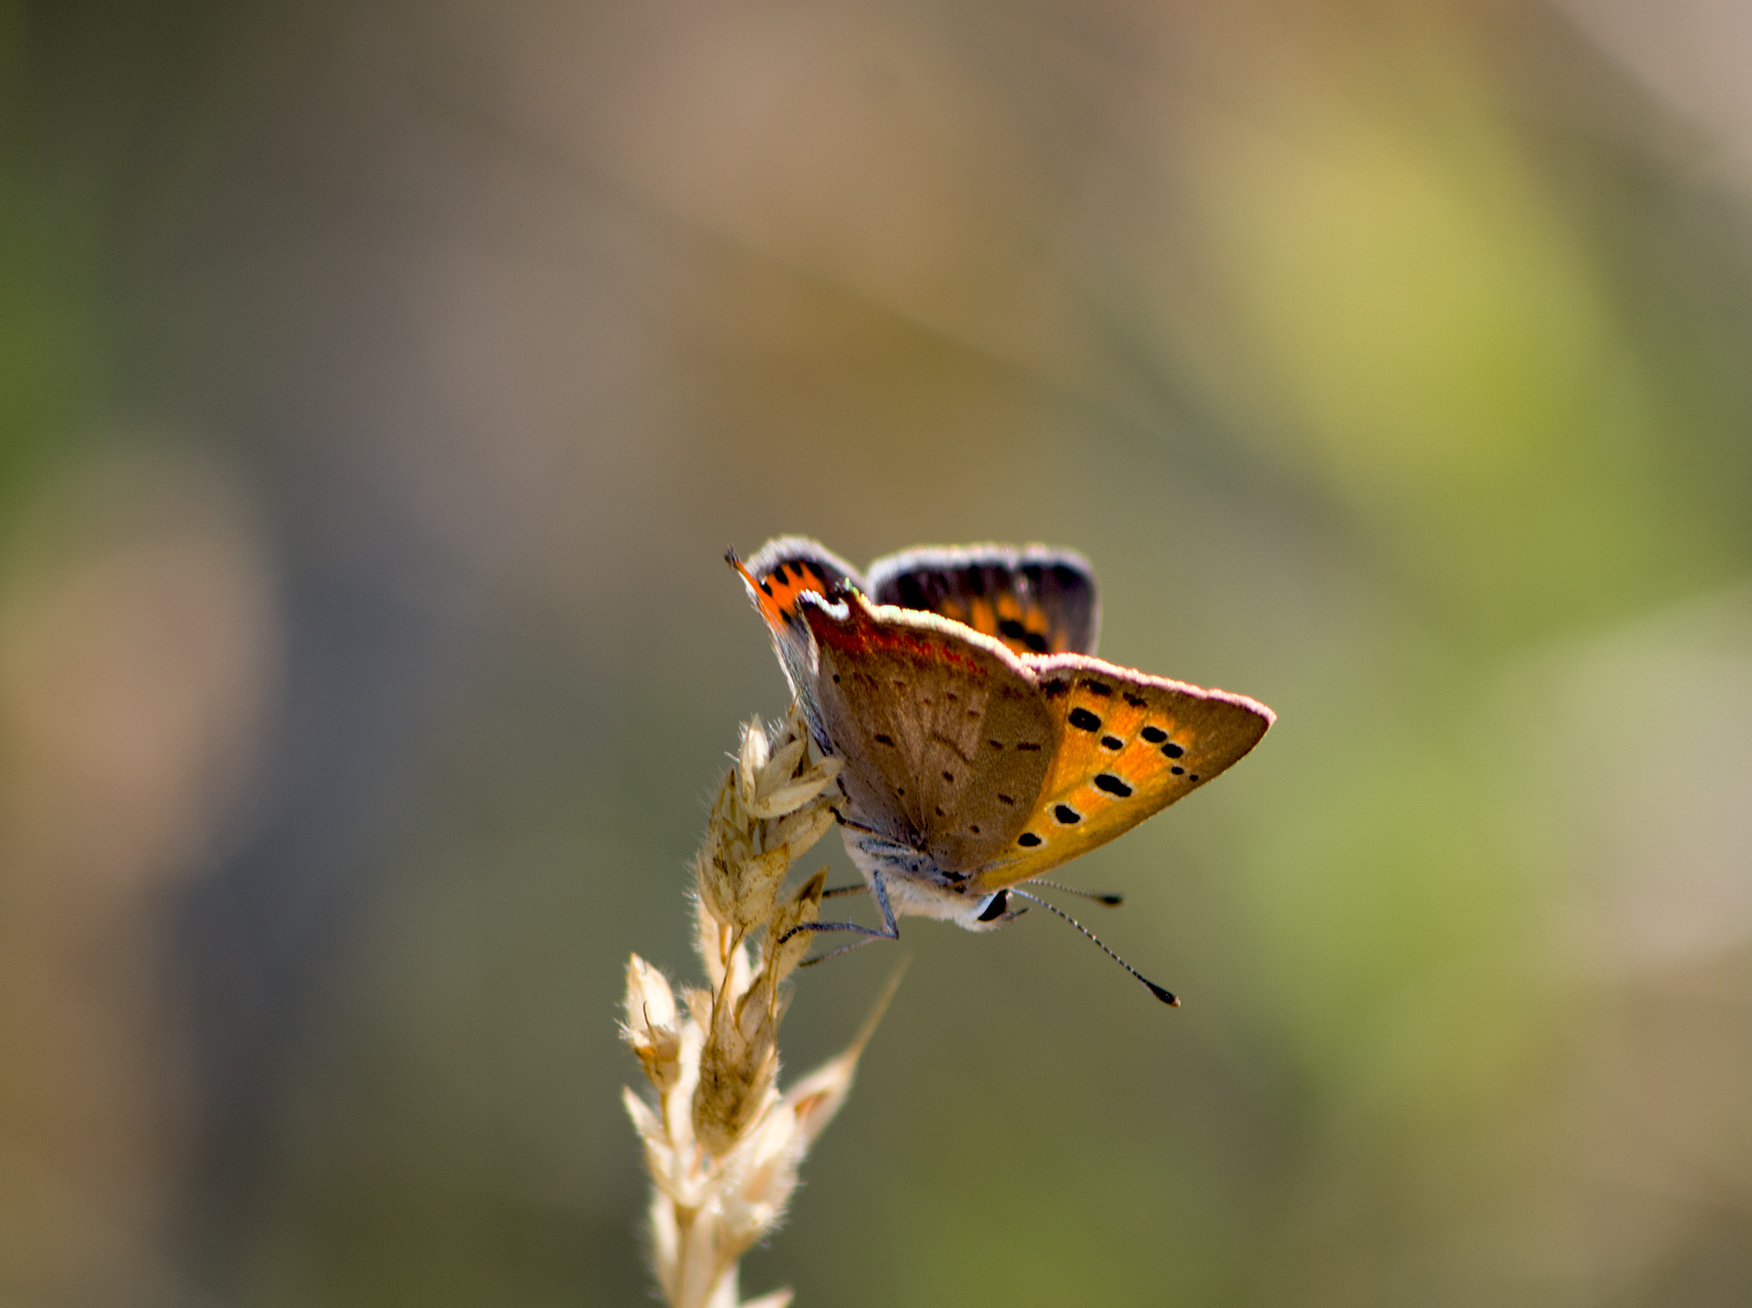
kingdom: Animalia
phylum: Arthropoda
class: Insecta
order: Lepidoptera
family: Lycaenidae
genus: Lycaena
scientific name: Lycaena phlaeas
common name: Small copper
